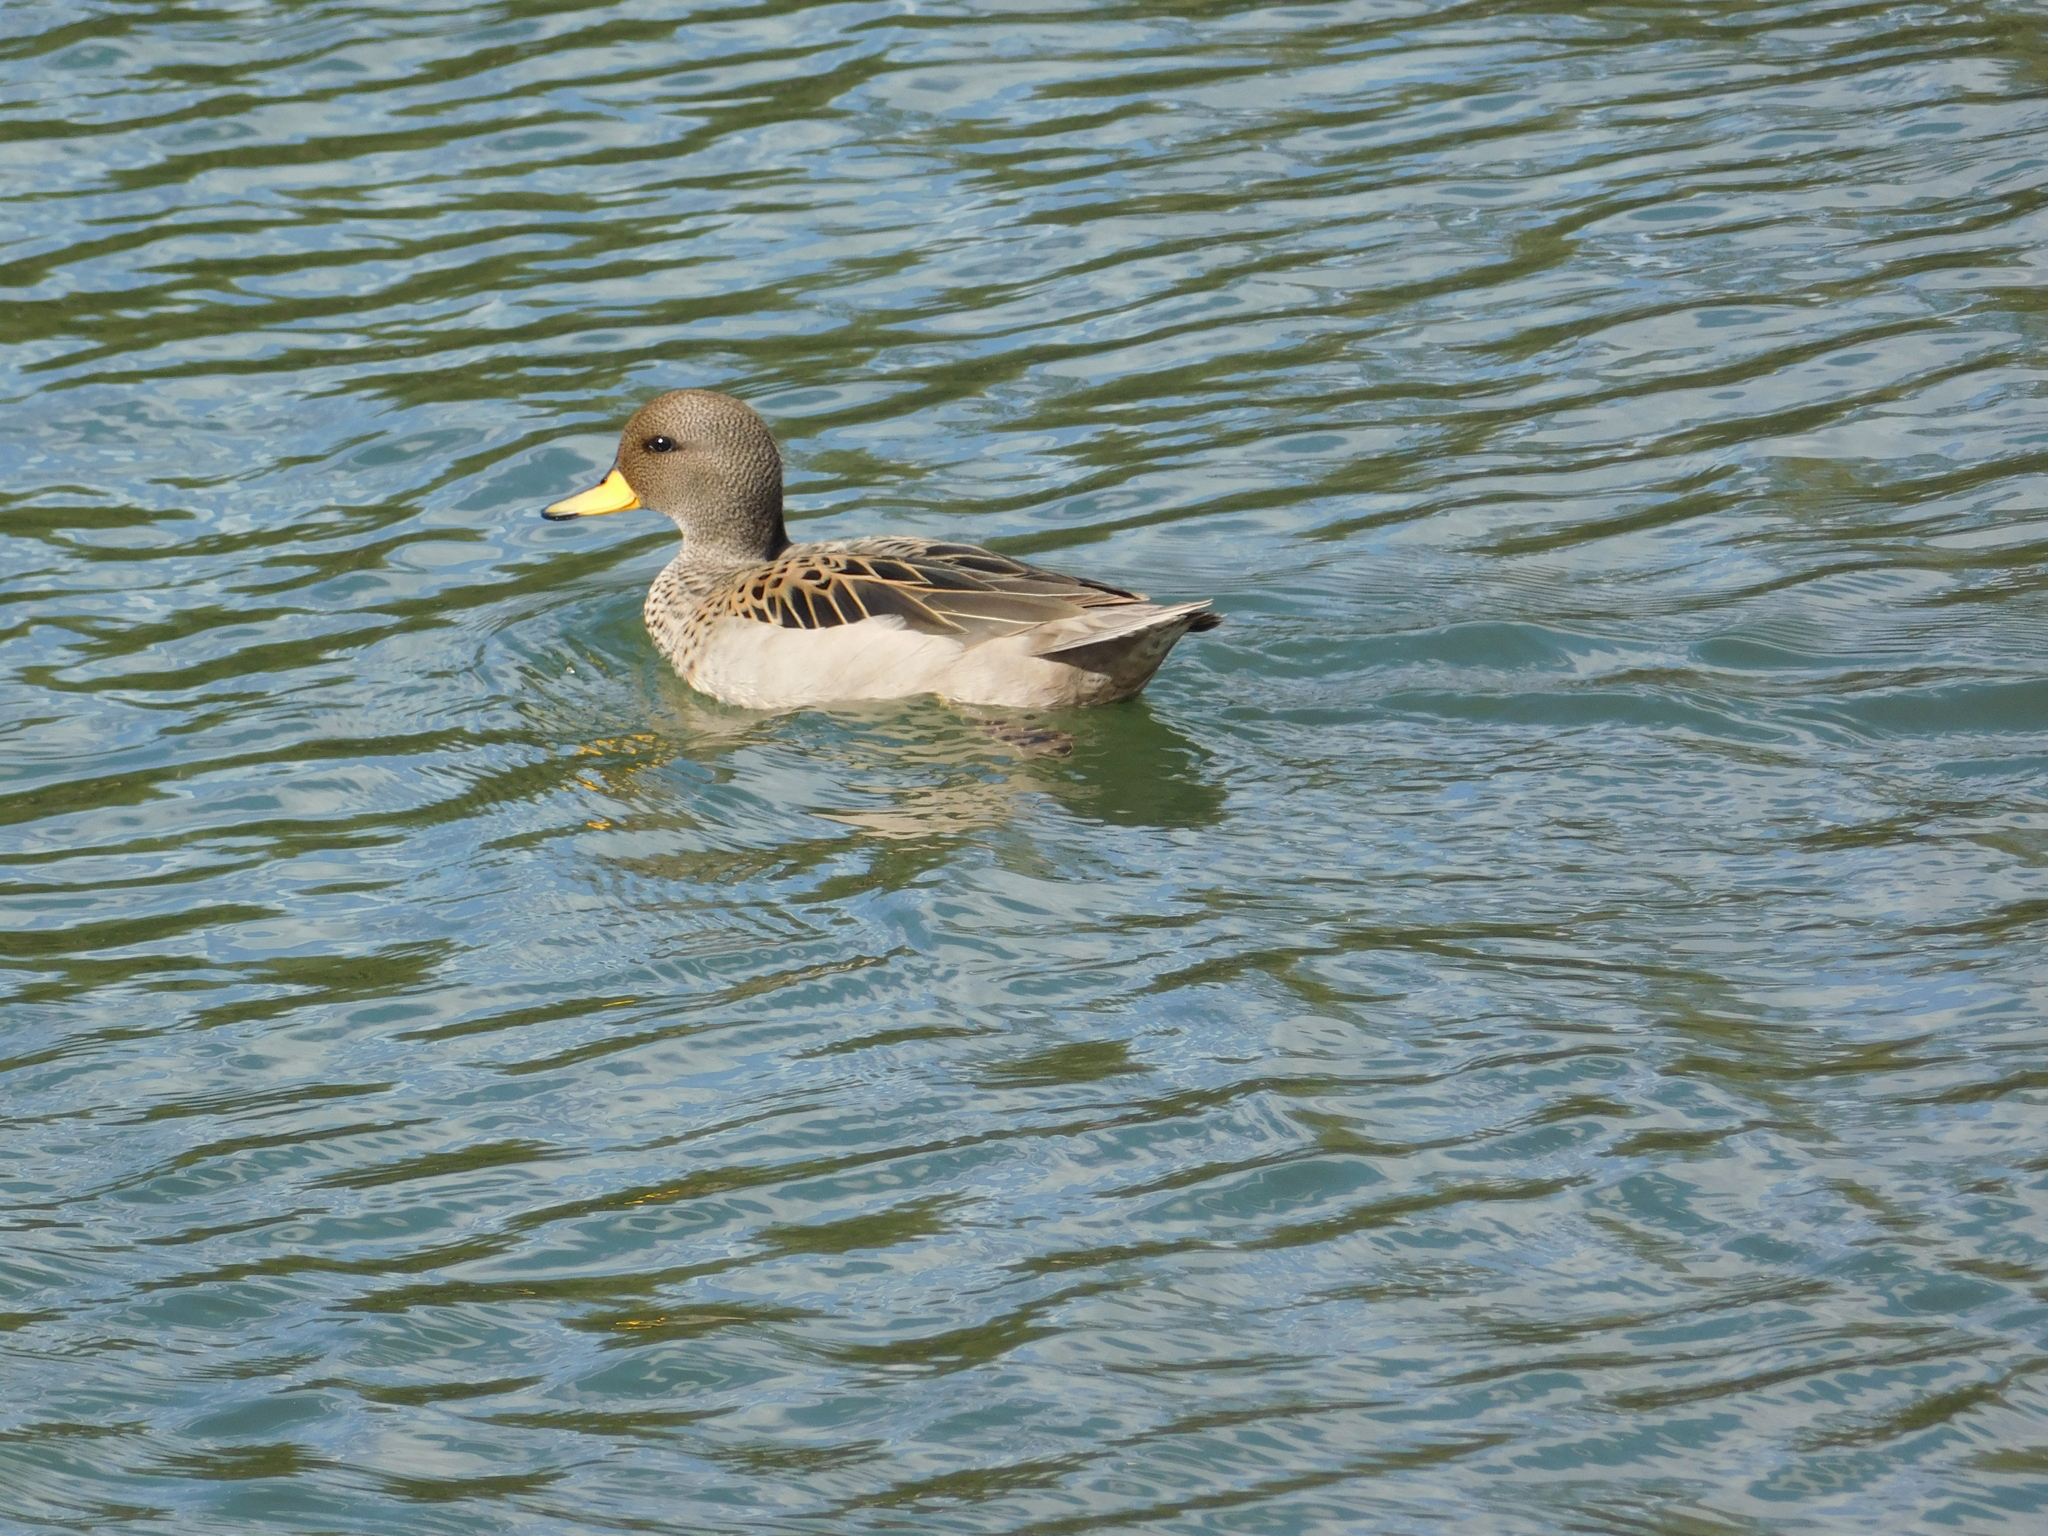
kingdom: Animalia
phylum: Chordata
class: Aves
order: Anseriformes
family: Anatidae
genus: Anas
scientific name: Anas flavirostris
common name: Yellow-billed teal
